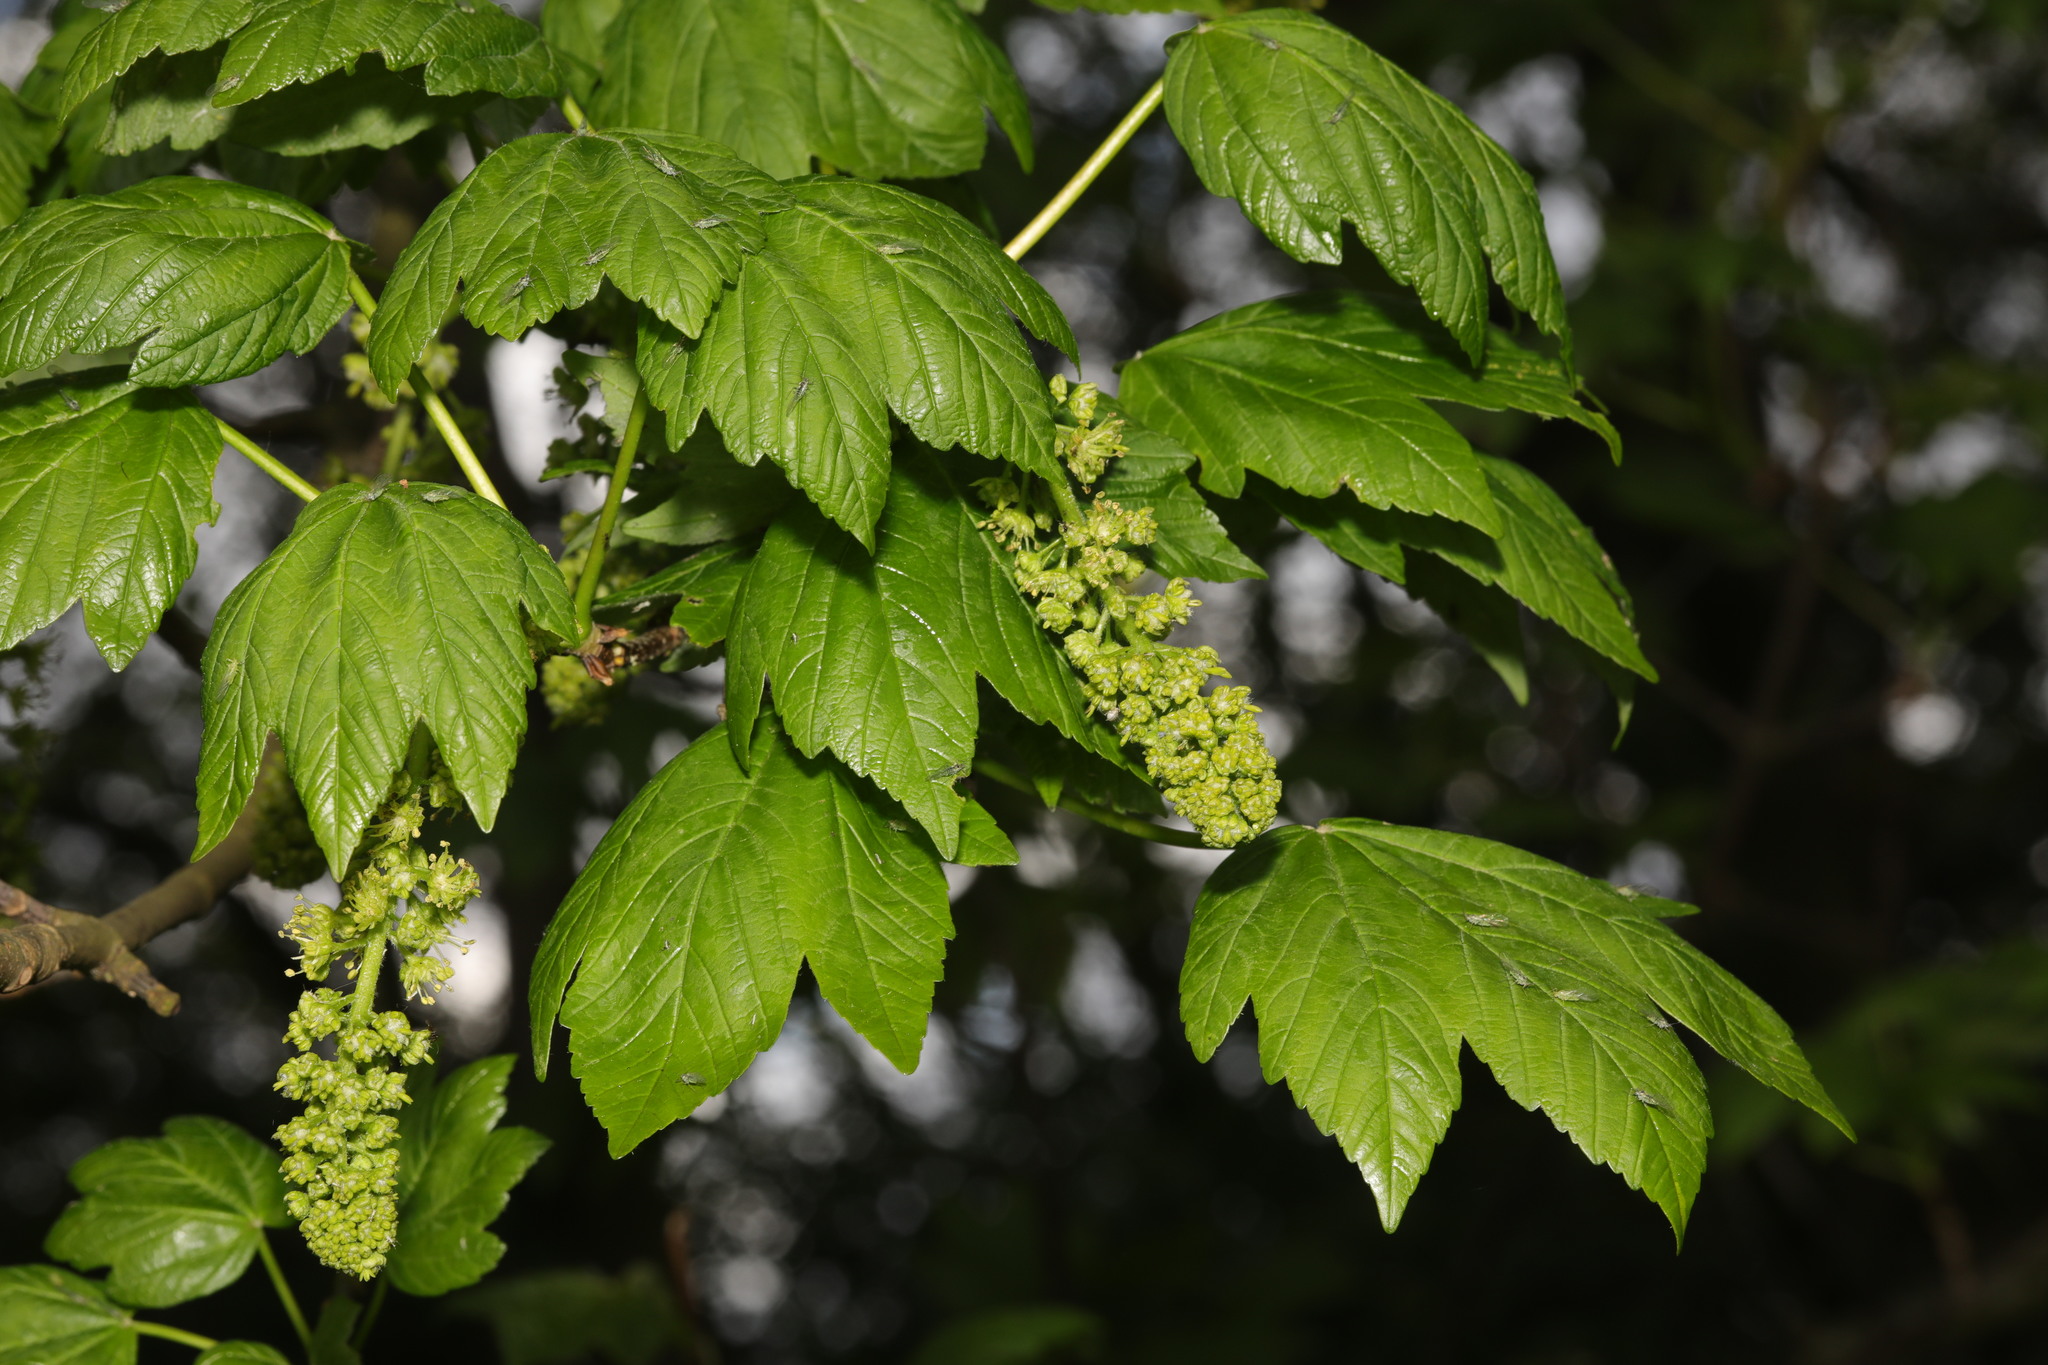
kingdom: Plantae
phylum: Tracheophyta
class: Magnoliopsida
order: Sapindales
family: Sapindaceae
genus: Acer
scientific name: Acer pseudoplatanus
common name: Sycamore
